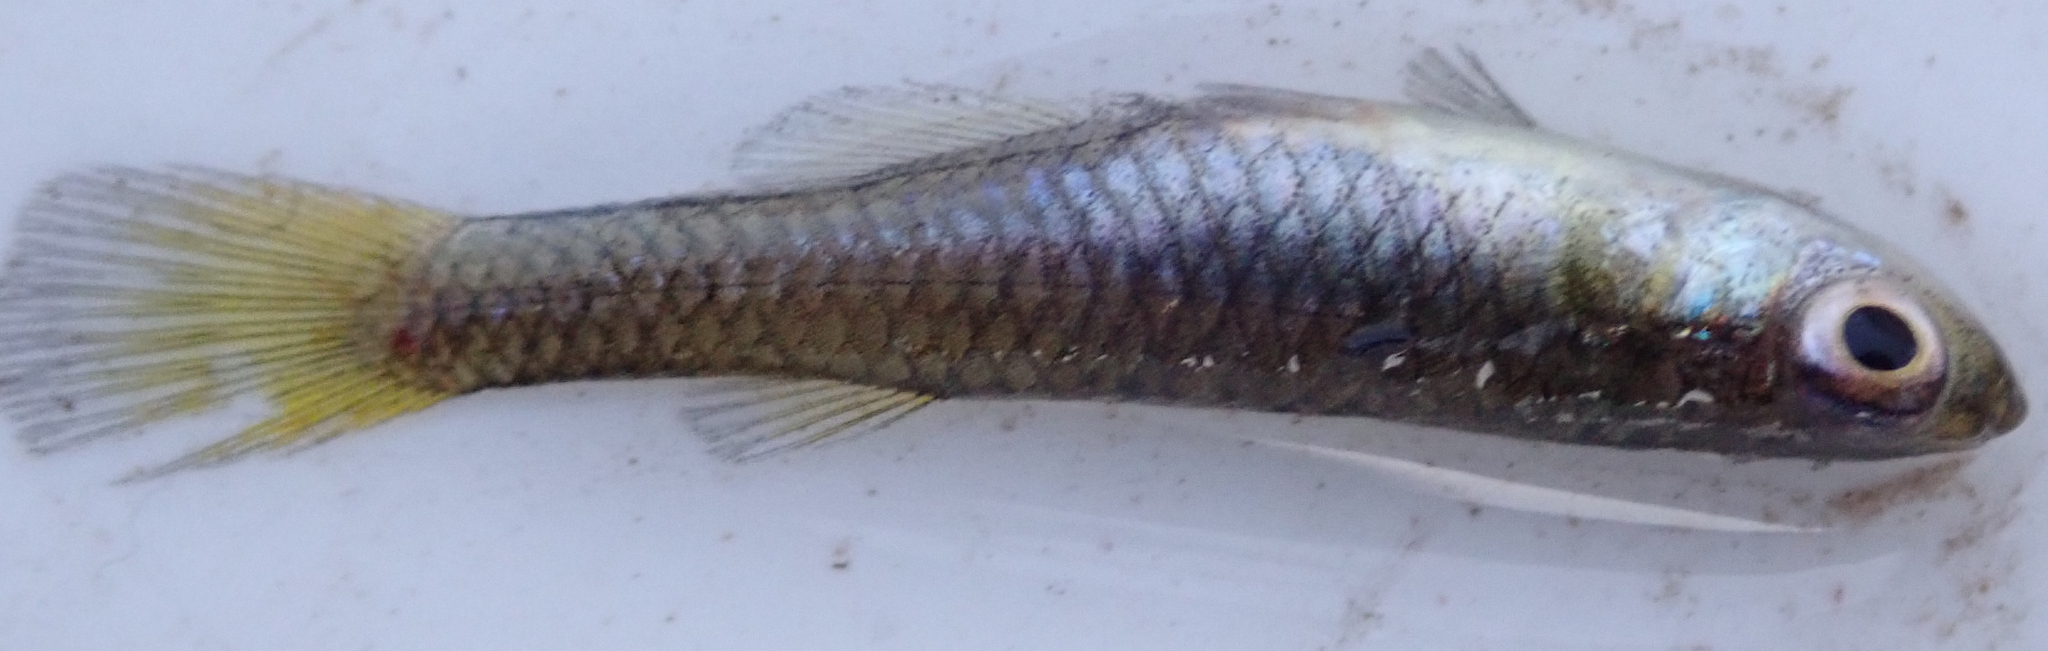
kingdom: Animalia
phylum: Chordata
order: Cyprinodontiformes
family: Poeciliidae
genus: Micropanchax
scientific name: Micropanchax johnstoni
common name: Johnston's topminnow
